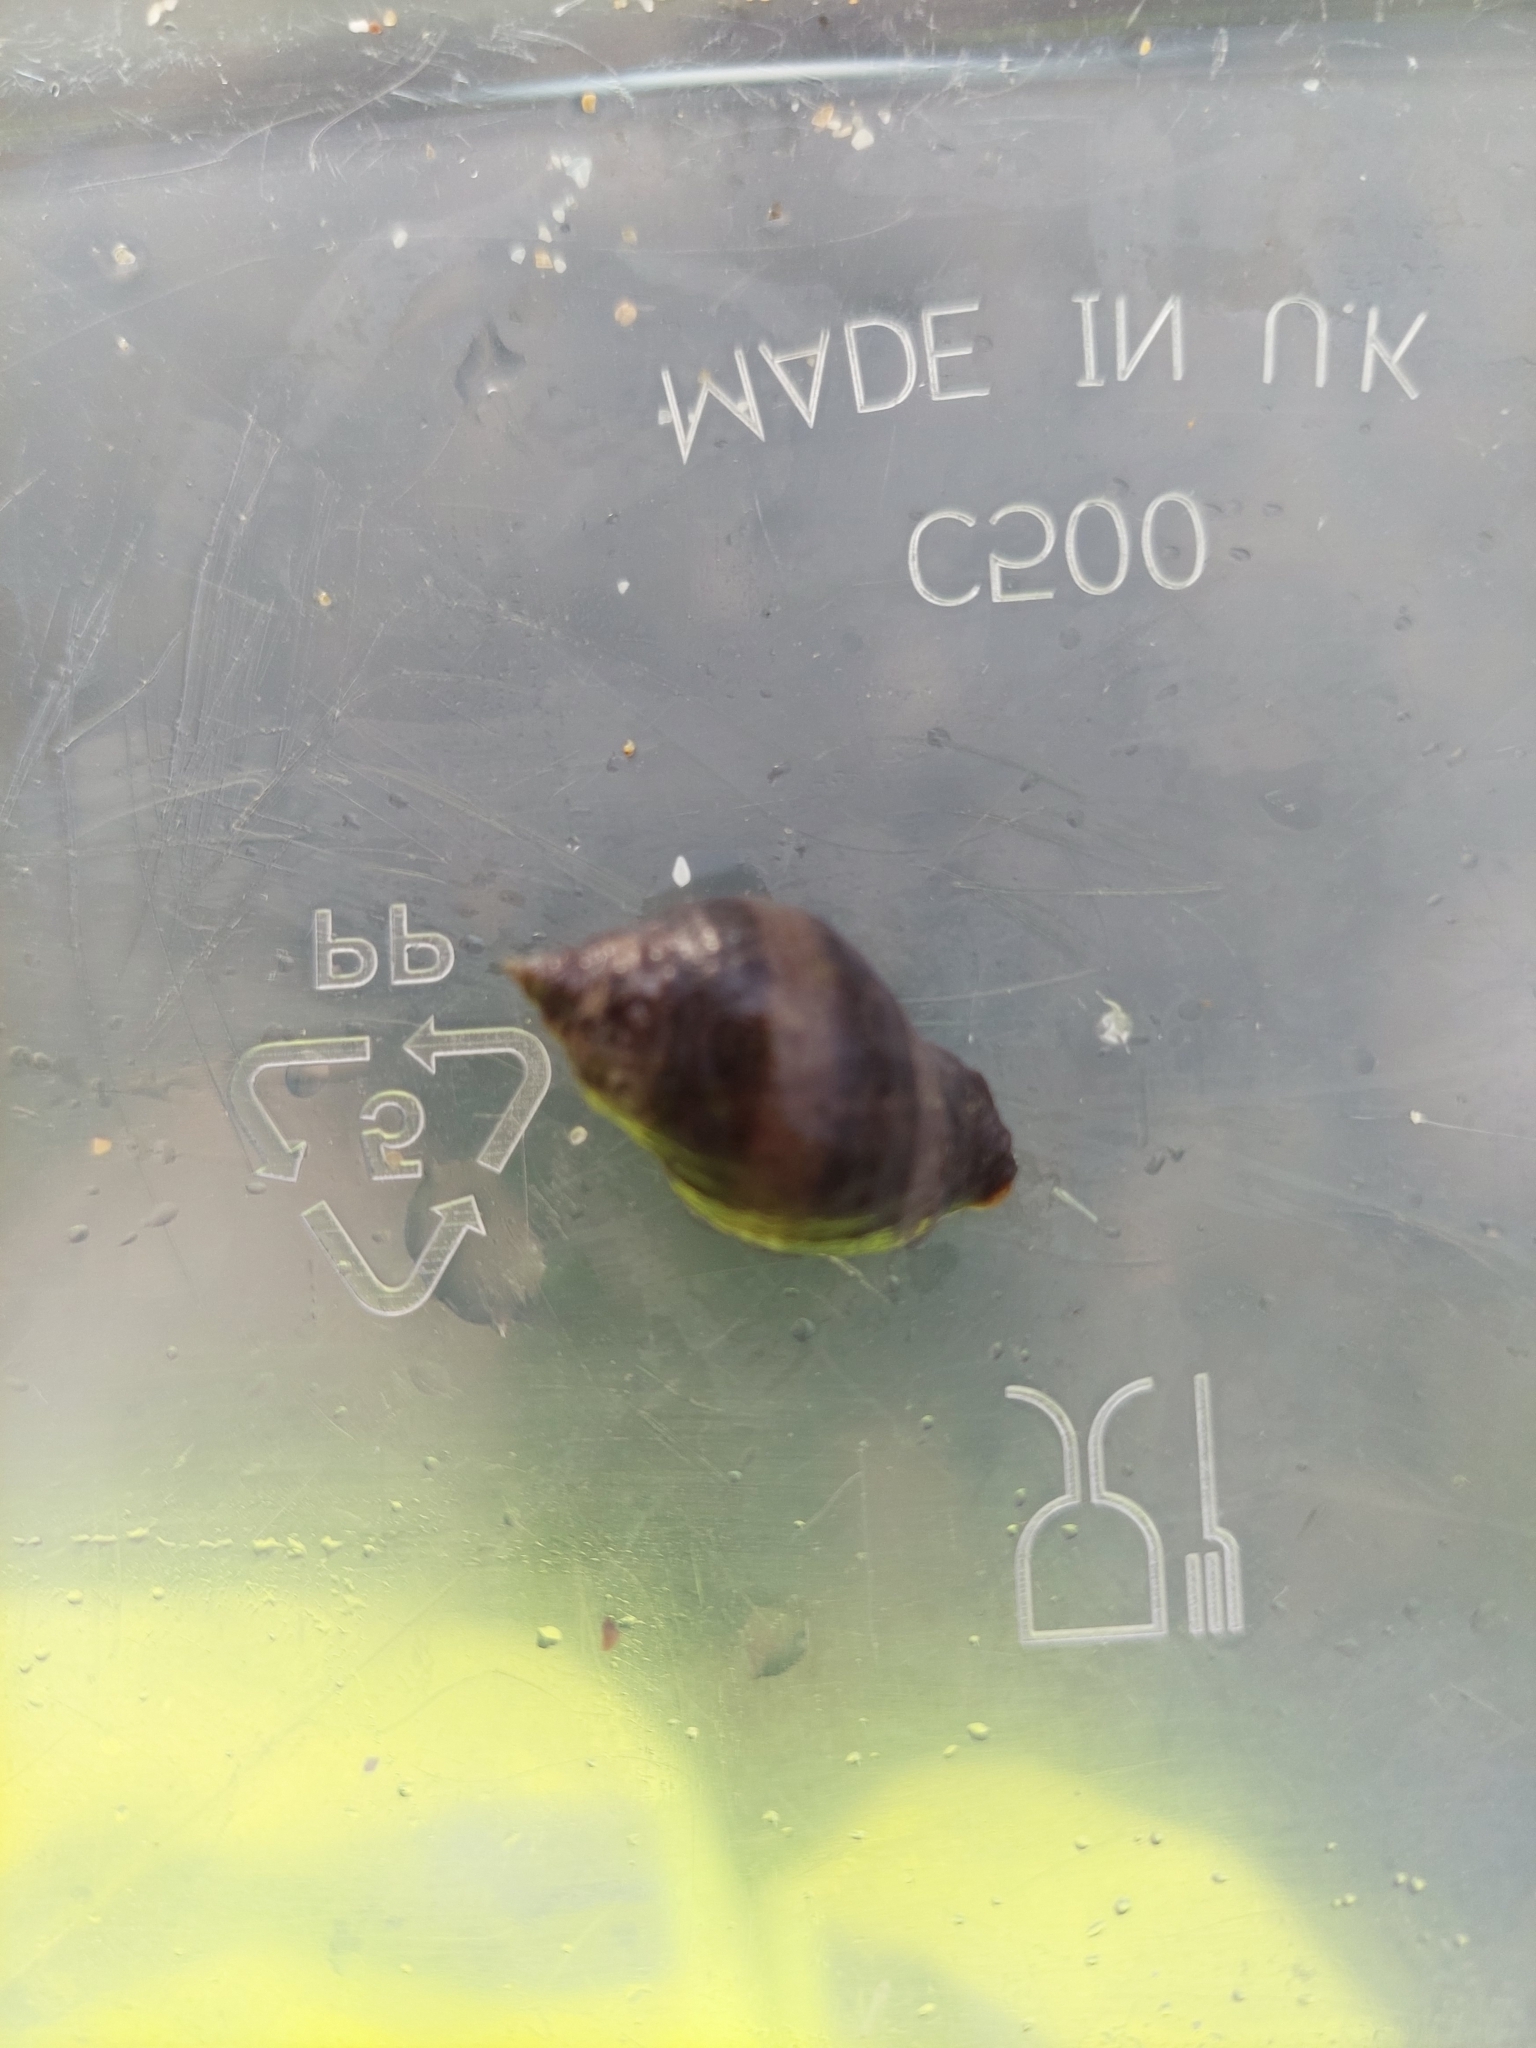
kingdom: Animalia
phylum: Mollusca
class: Gastropoda
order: Neogastropoda
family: Muricidae
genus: Nucella
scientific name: Nucella lapillus
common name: Dog whelk
